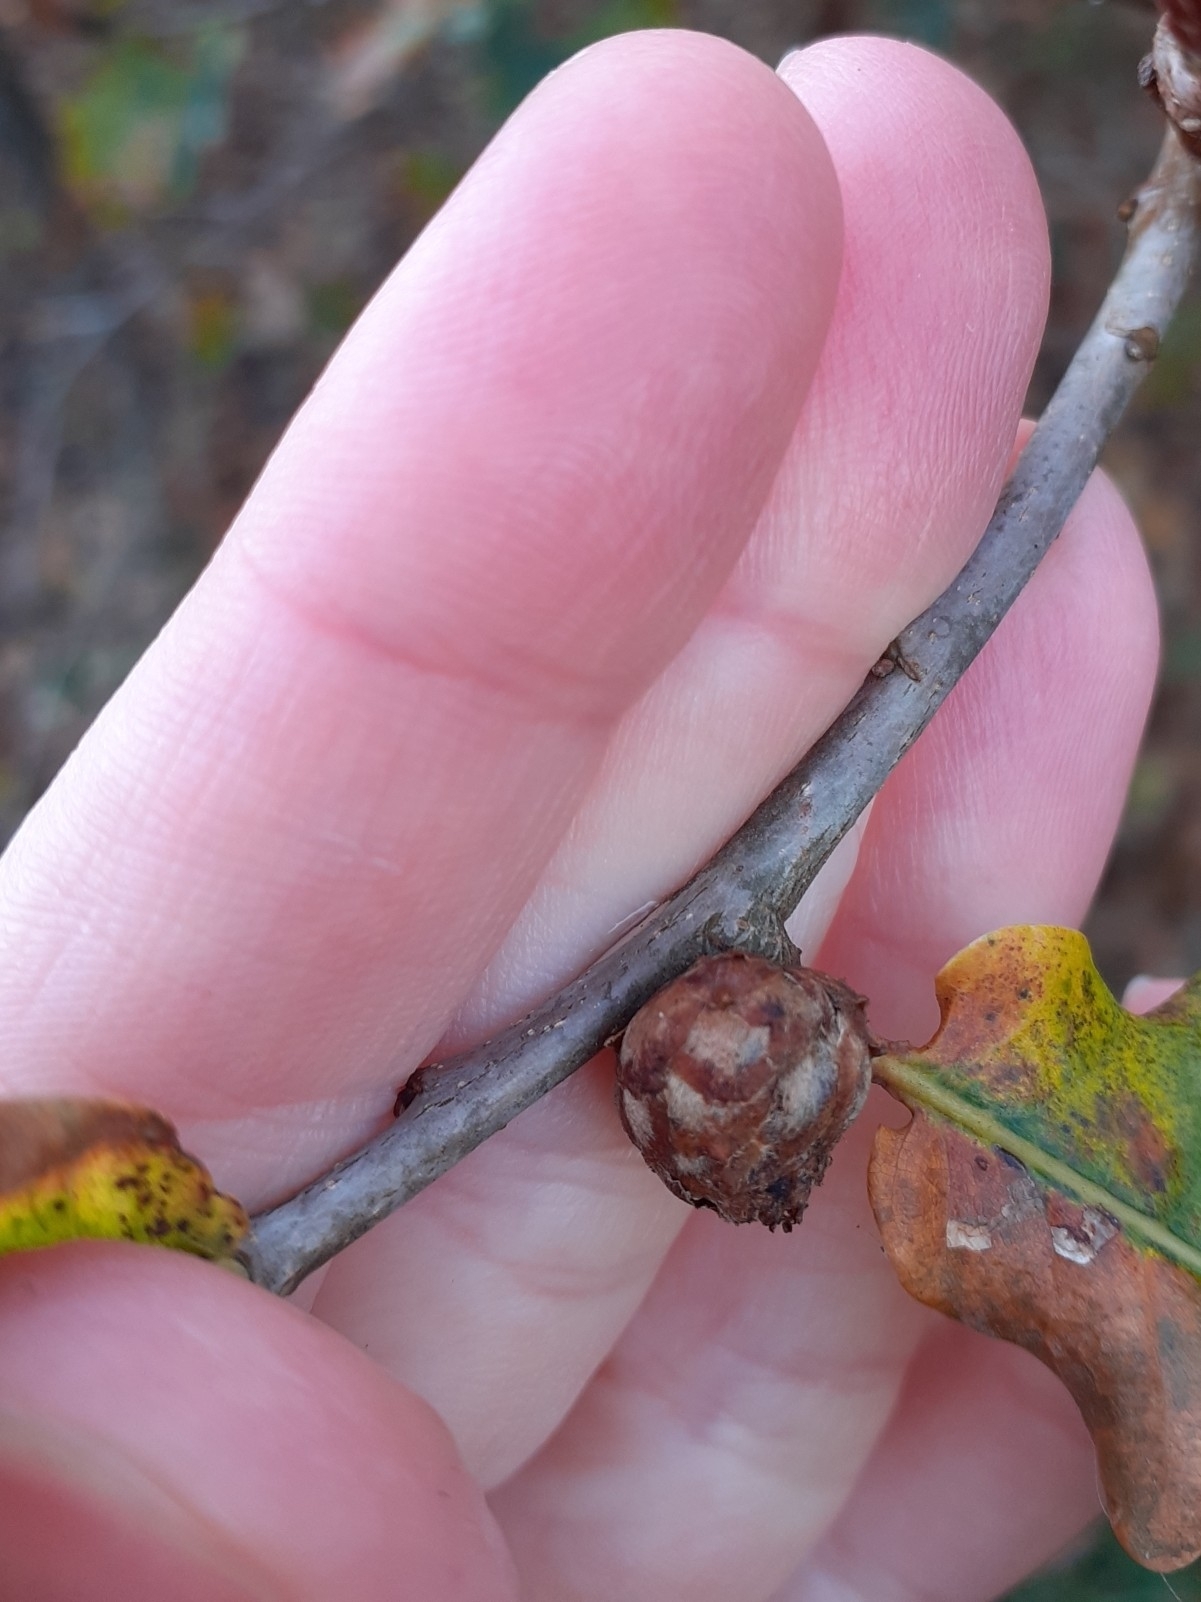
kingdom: Animalia
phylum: Arthropoda
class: Insecta
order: Hymenoptera
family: Cynipidae
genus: Andricus
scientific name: Andricus foecundatrix
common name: Artichoke gall
